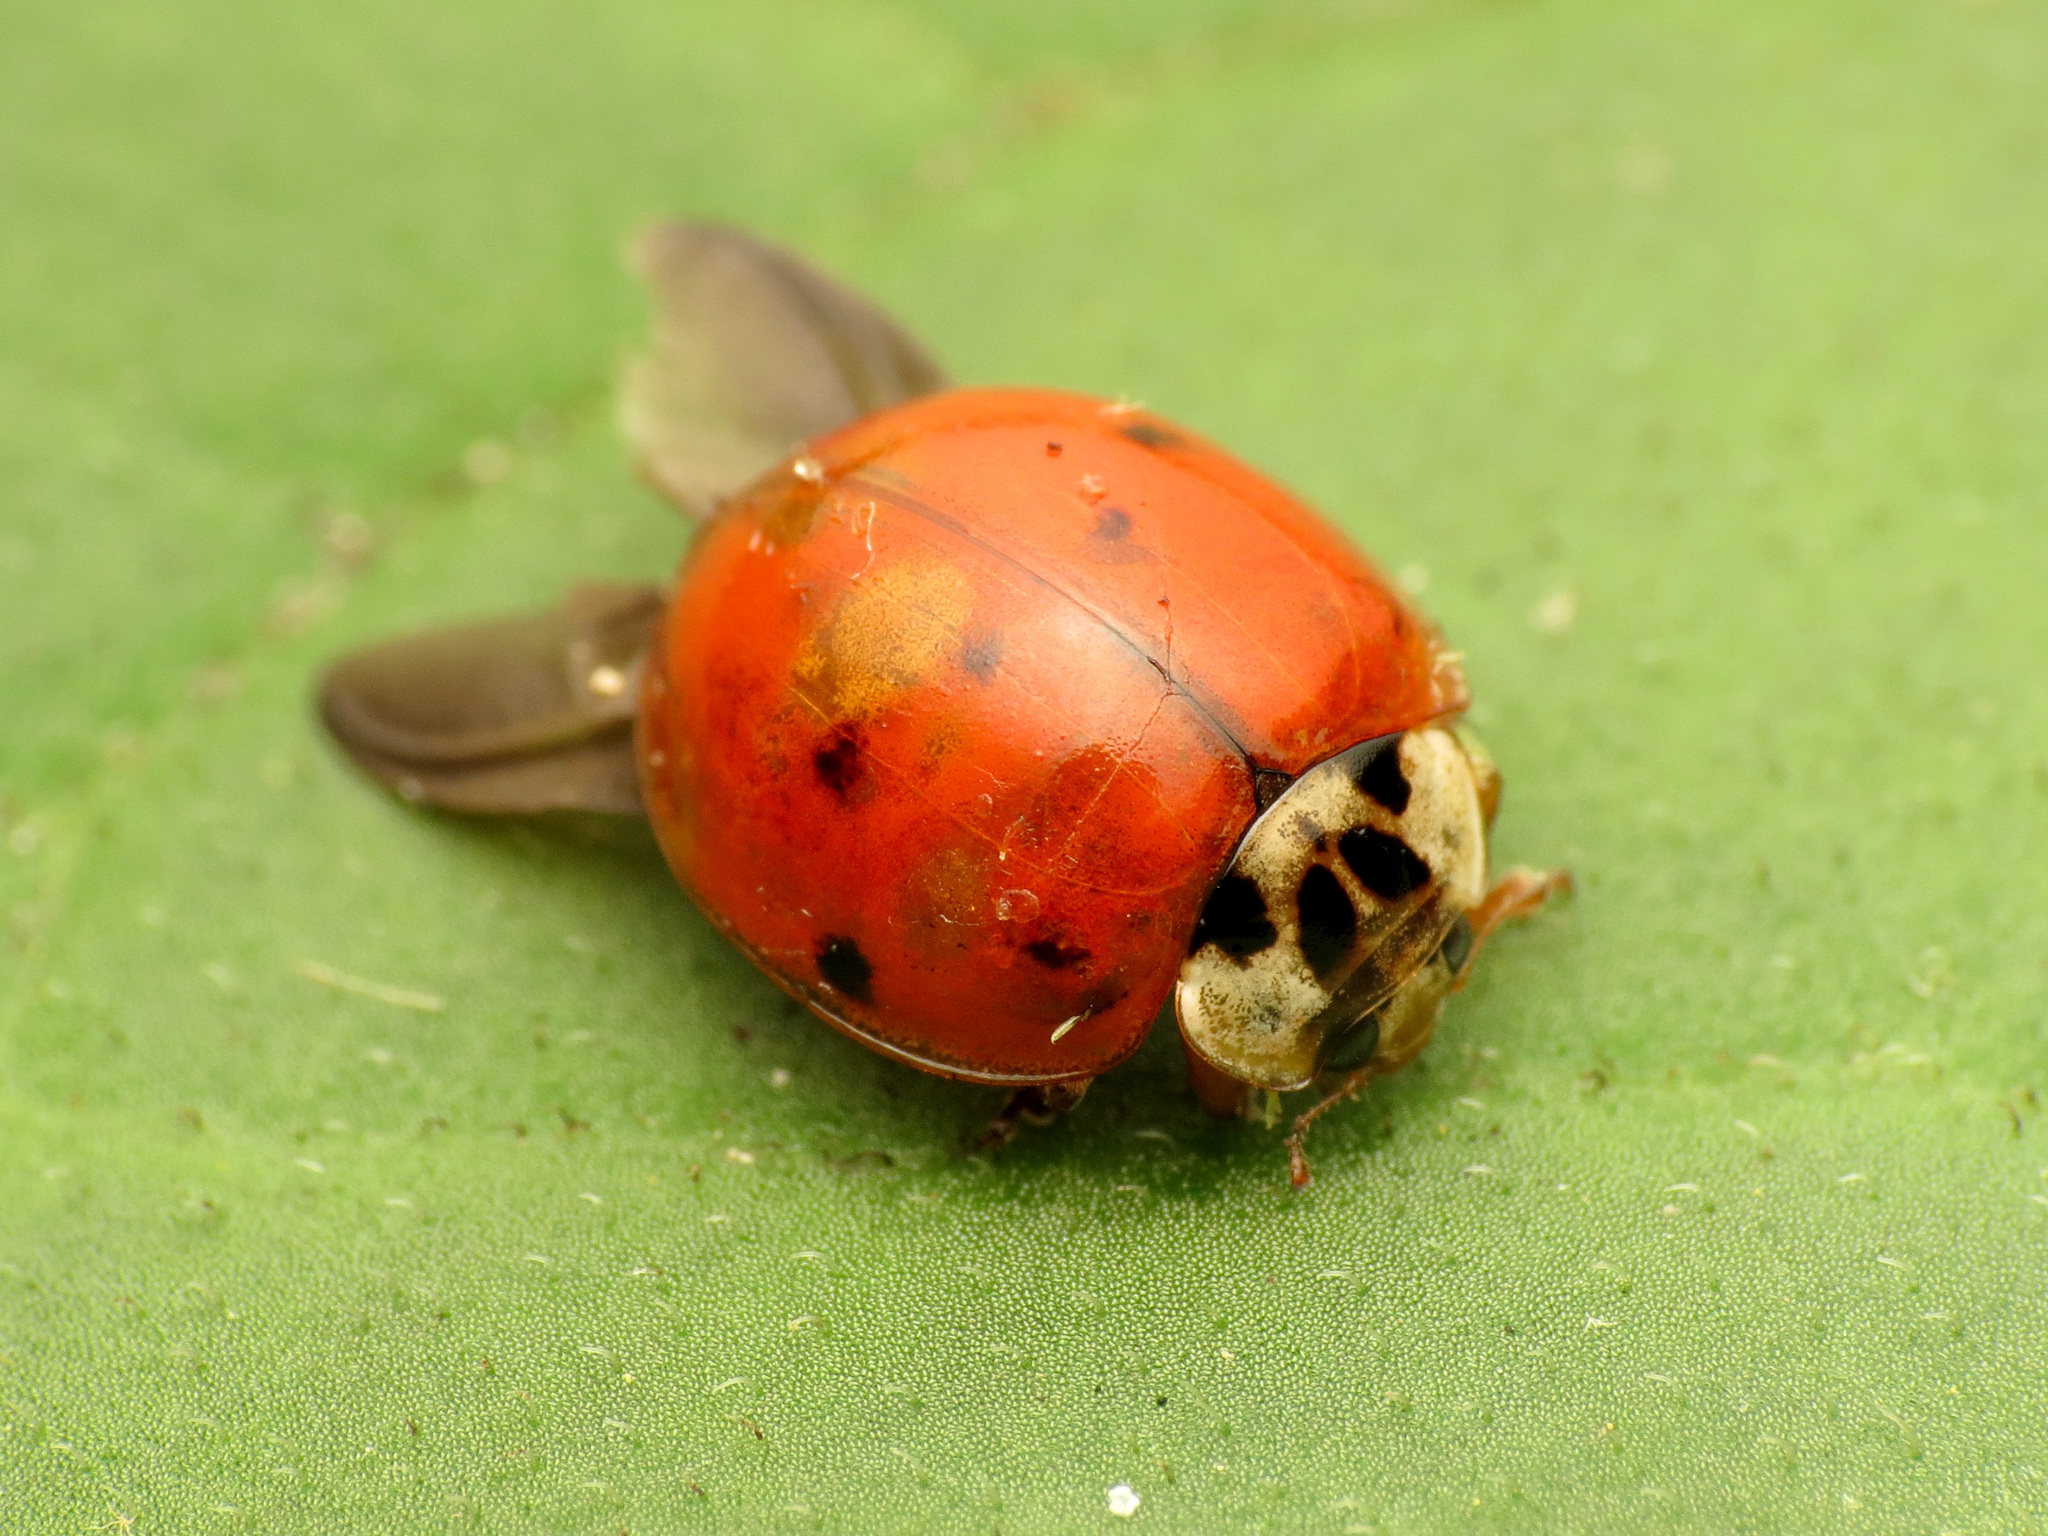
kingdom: Animalia
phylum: Arthropoda
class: Insecta
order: Coleoptera
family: Coccinellidae
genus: Harmonia
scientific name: Harmonia axyridis
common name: Harlequin ladybird
